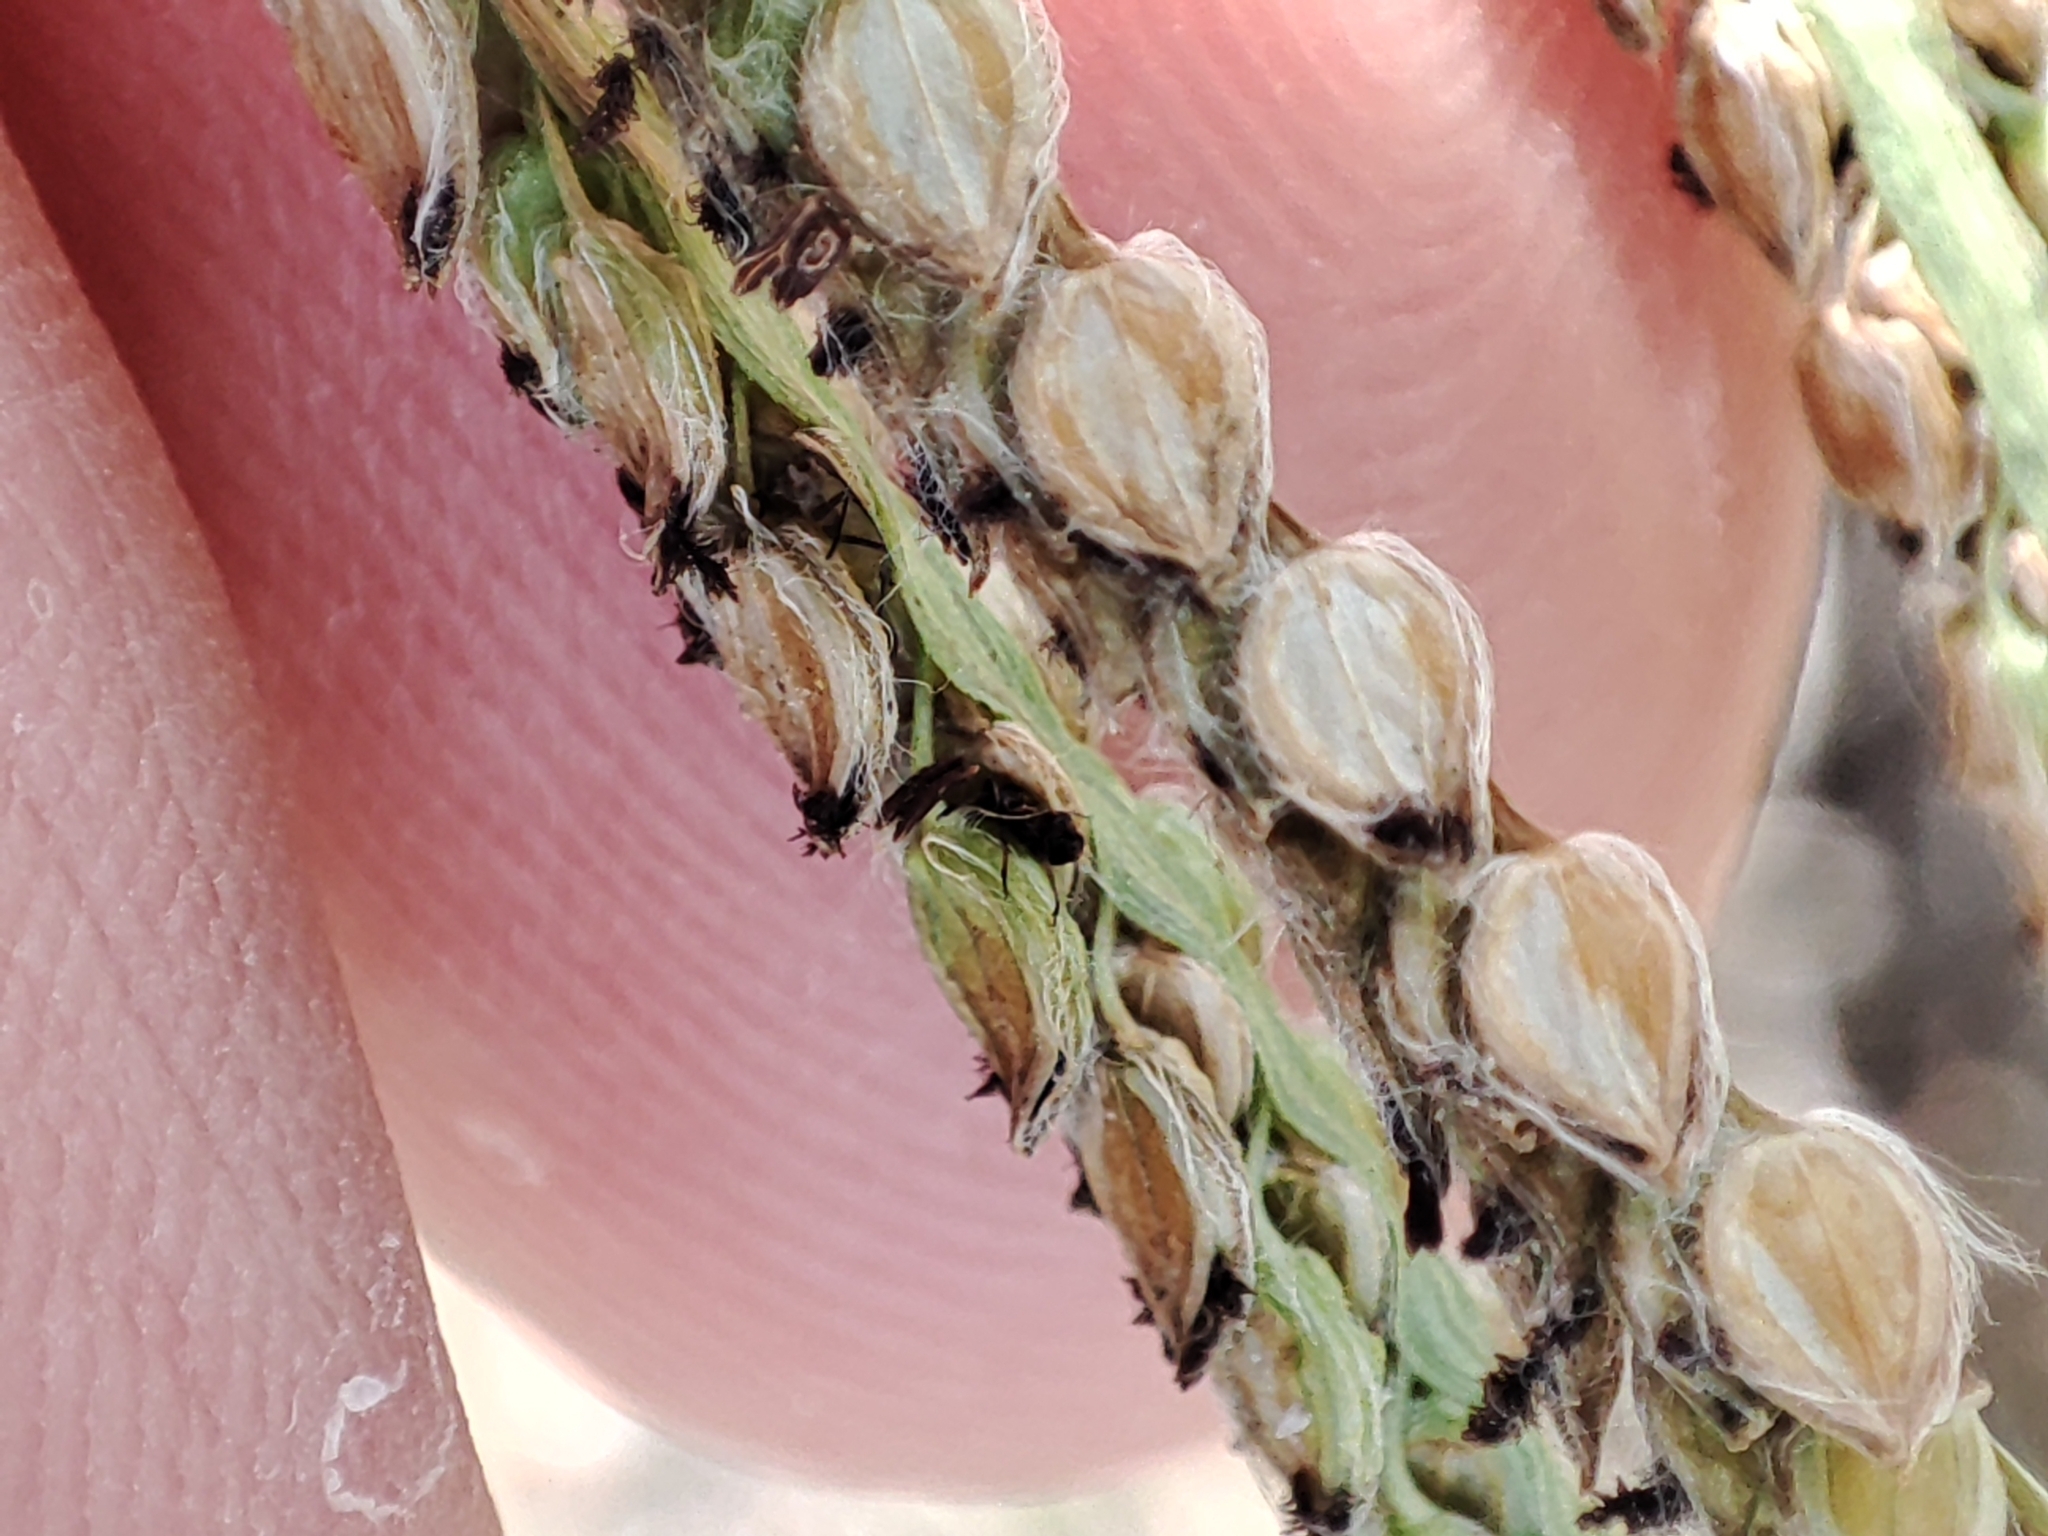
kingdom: Plantae
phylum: Tracheophyta
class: Liliopsida
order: Poales
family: Poaceae
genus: Paspalum
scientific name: Paspalum dilatatum
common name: Dallisgrass
